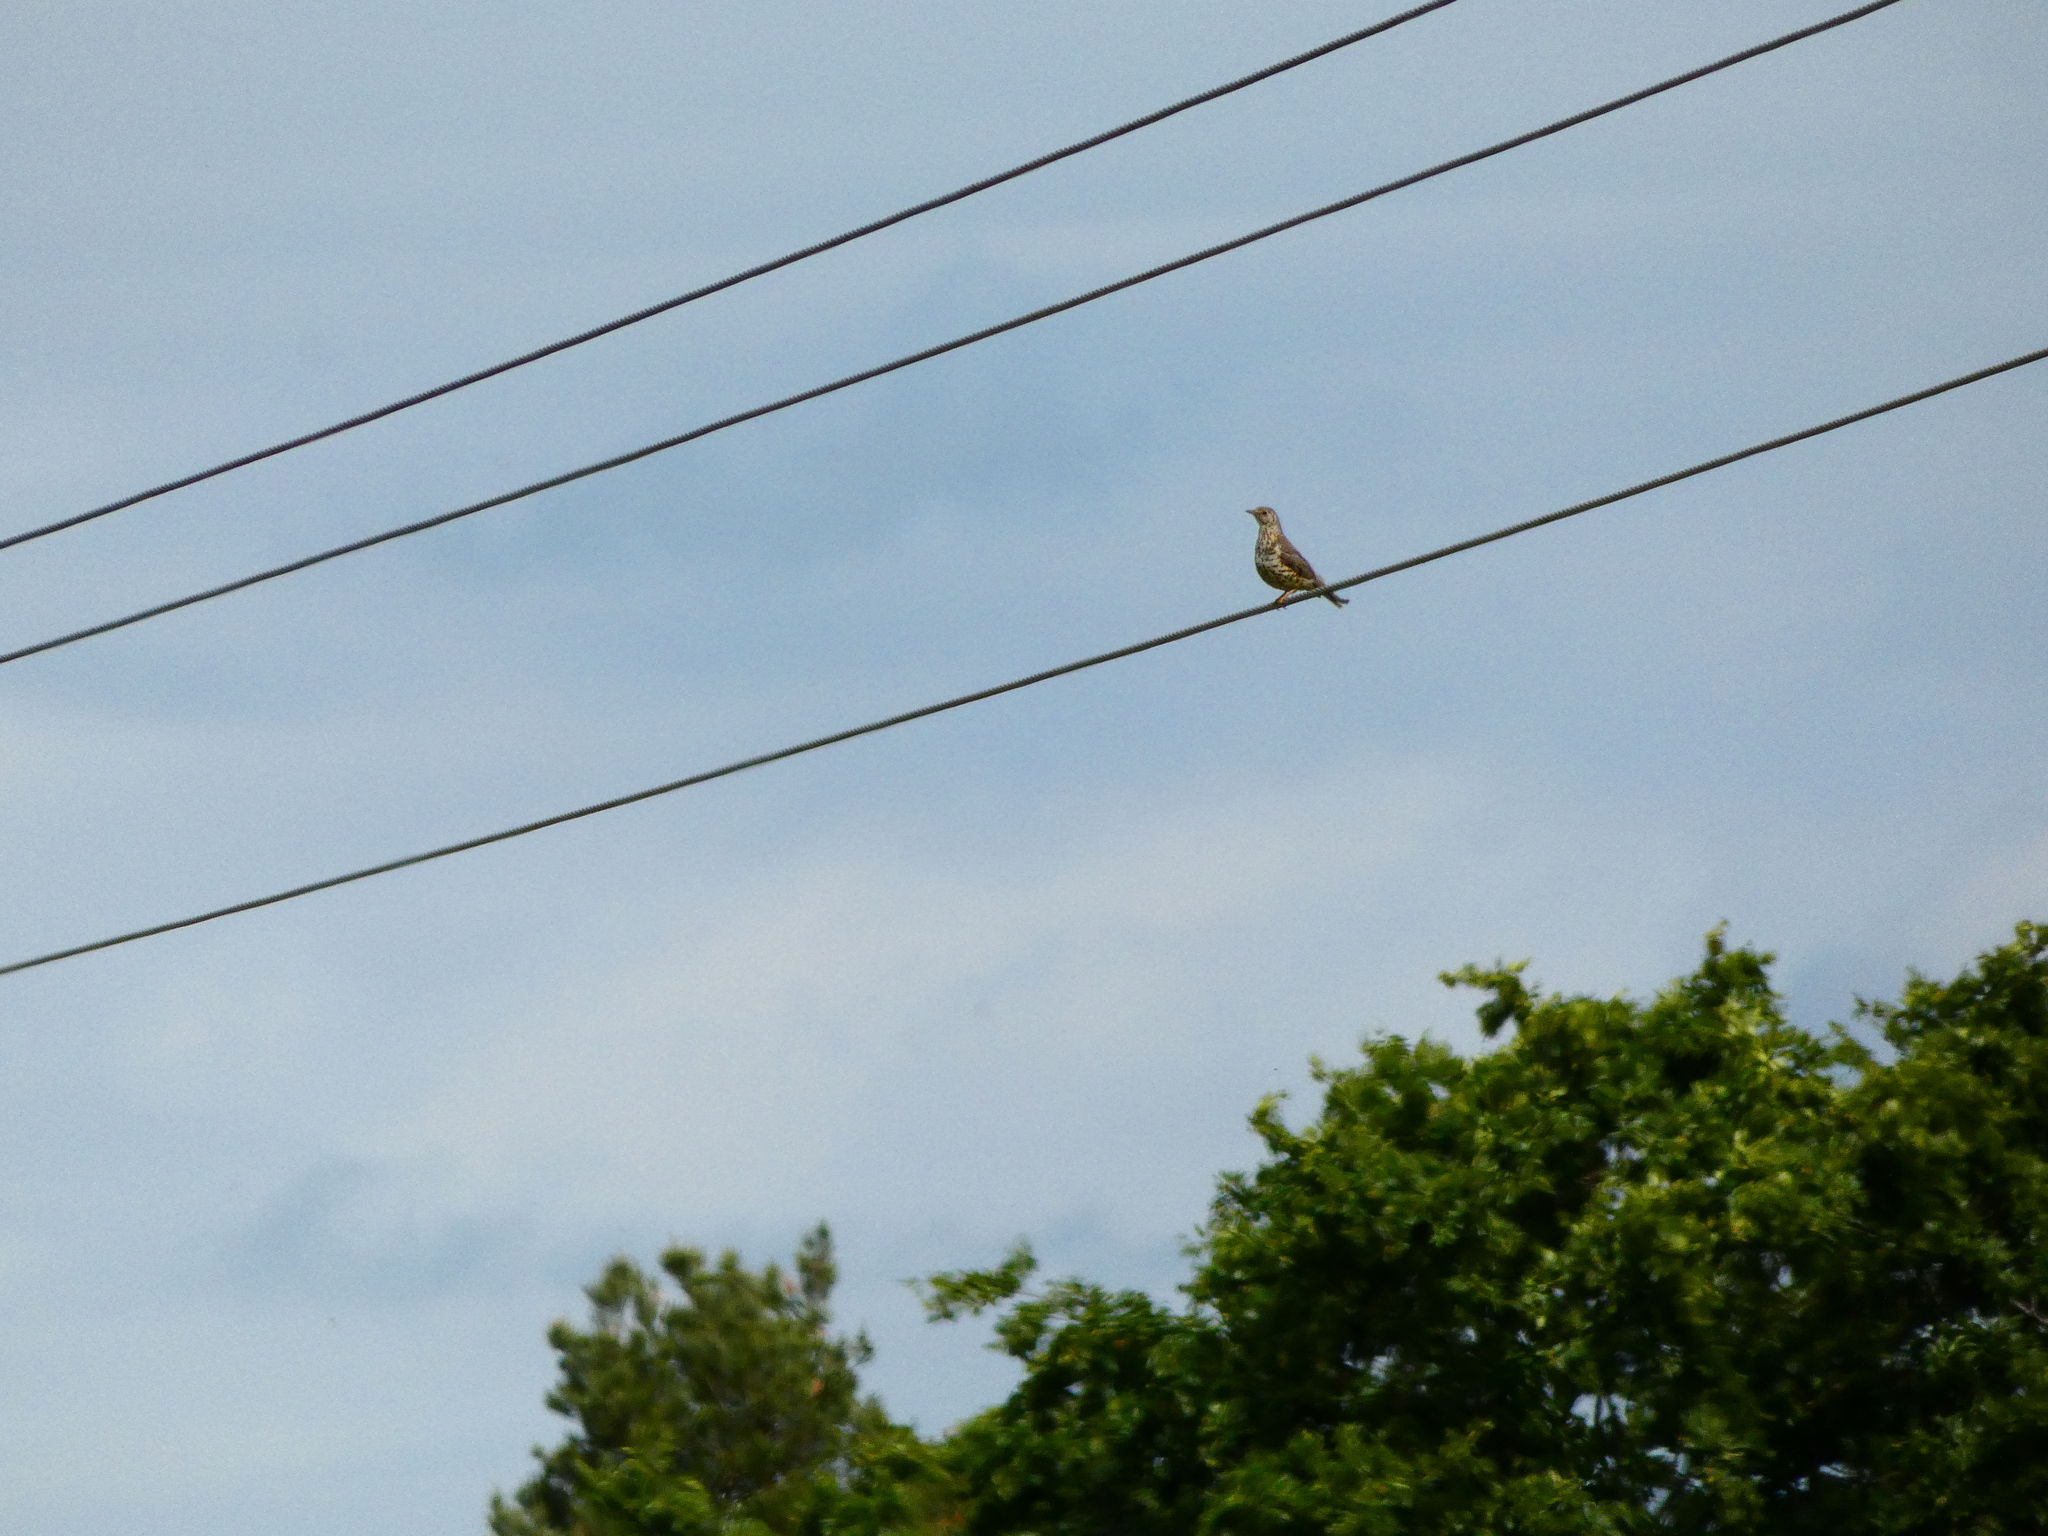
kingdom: Animalia
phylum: Chordata
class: Aves
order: Passeriformes
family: Turdidae
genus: Turdus
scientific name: Turdus viscivorus
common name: Mistle thrush
